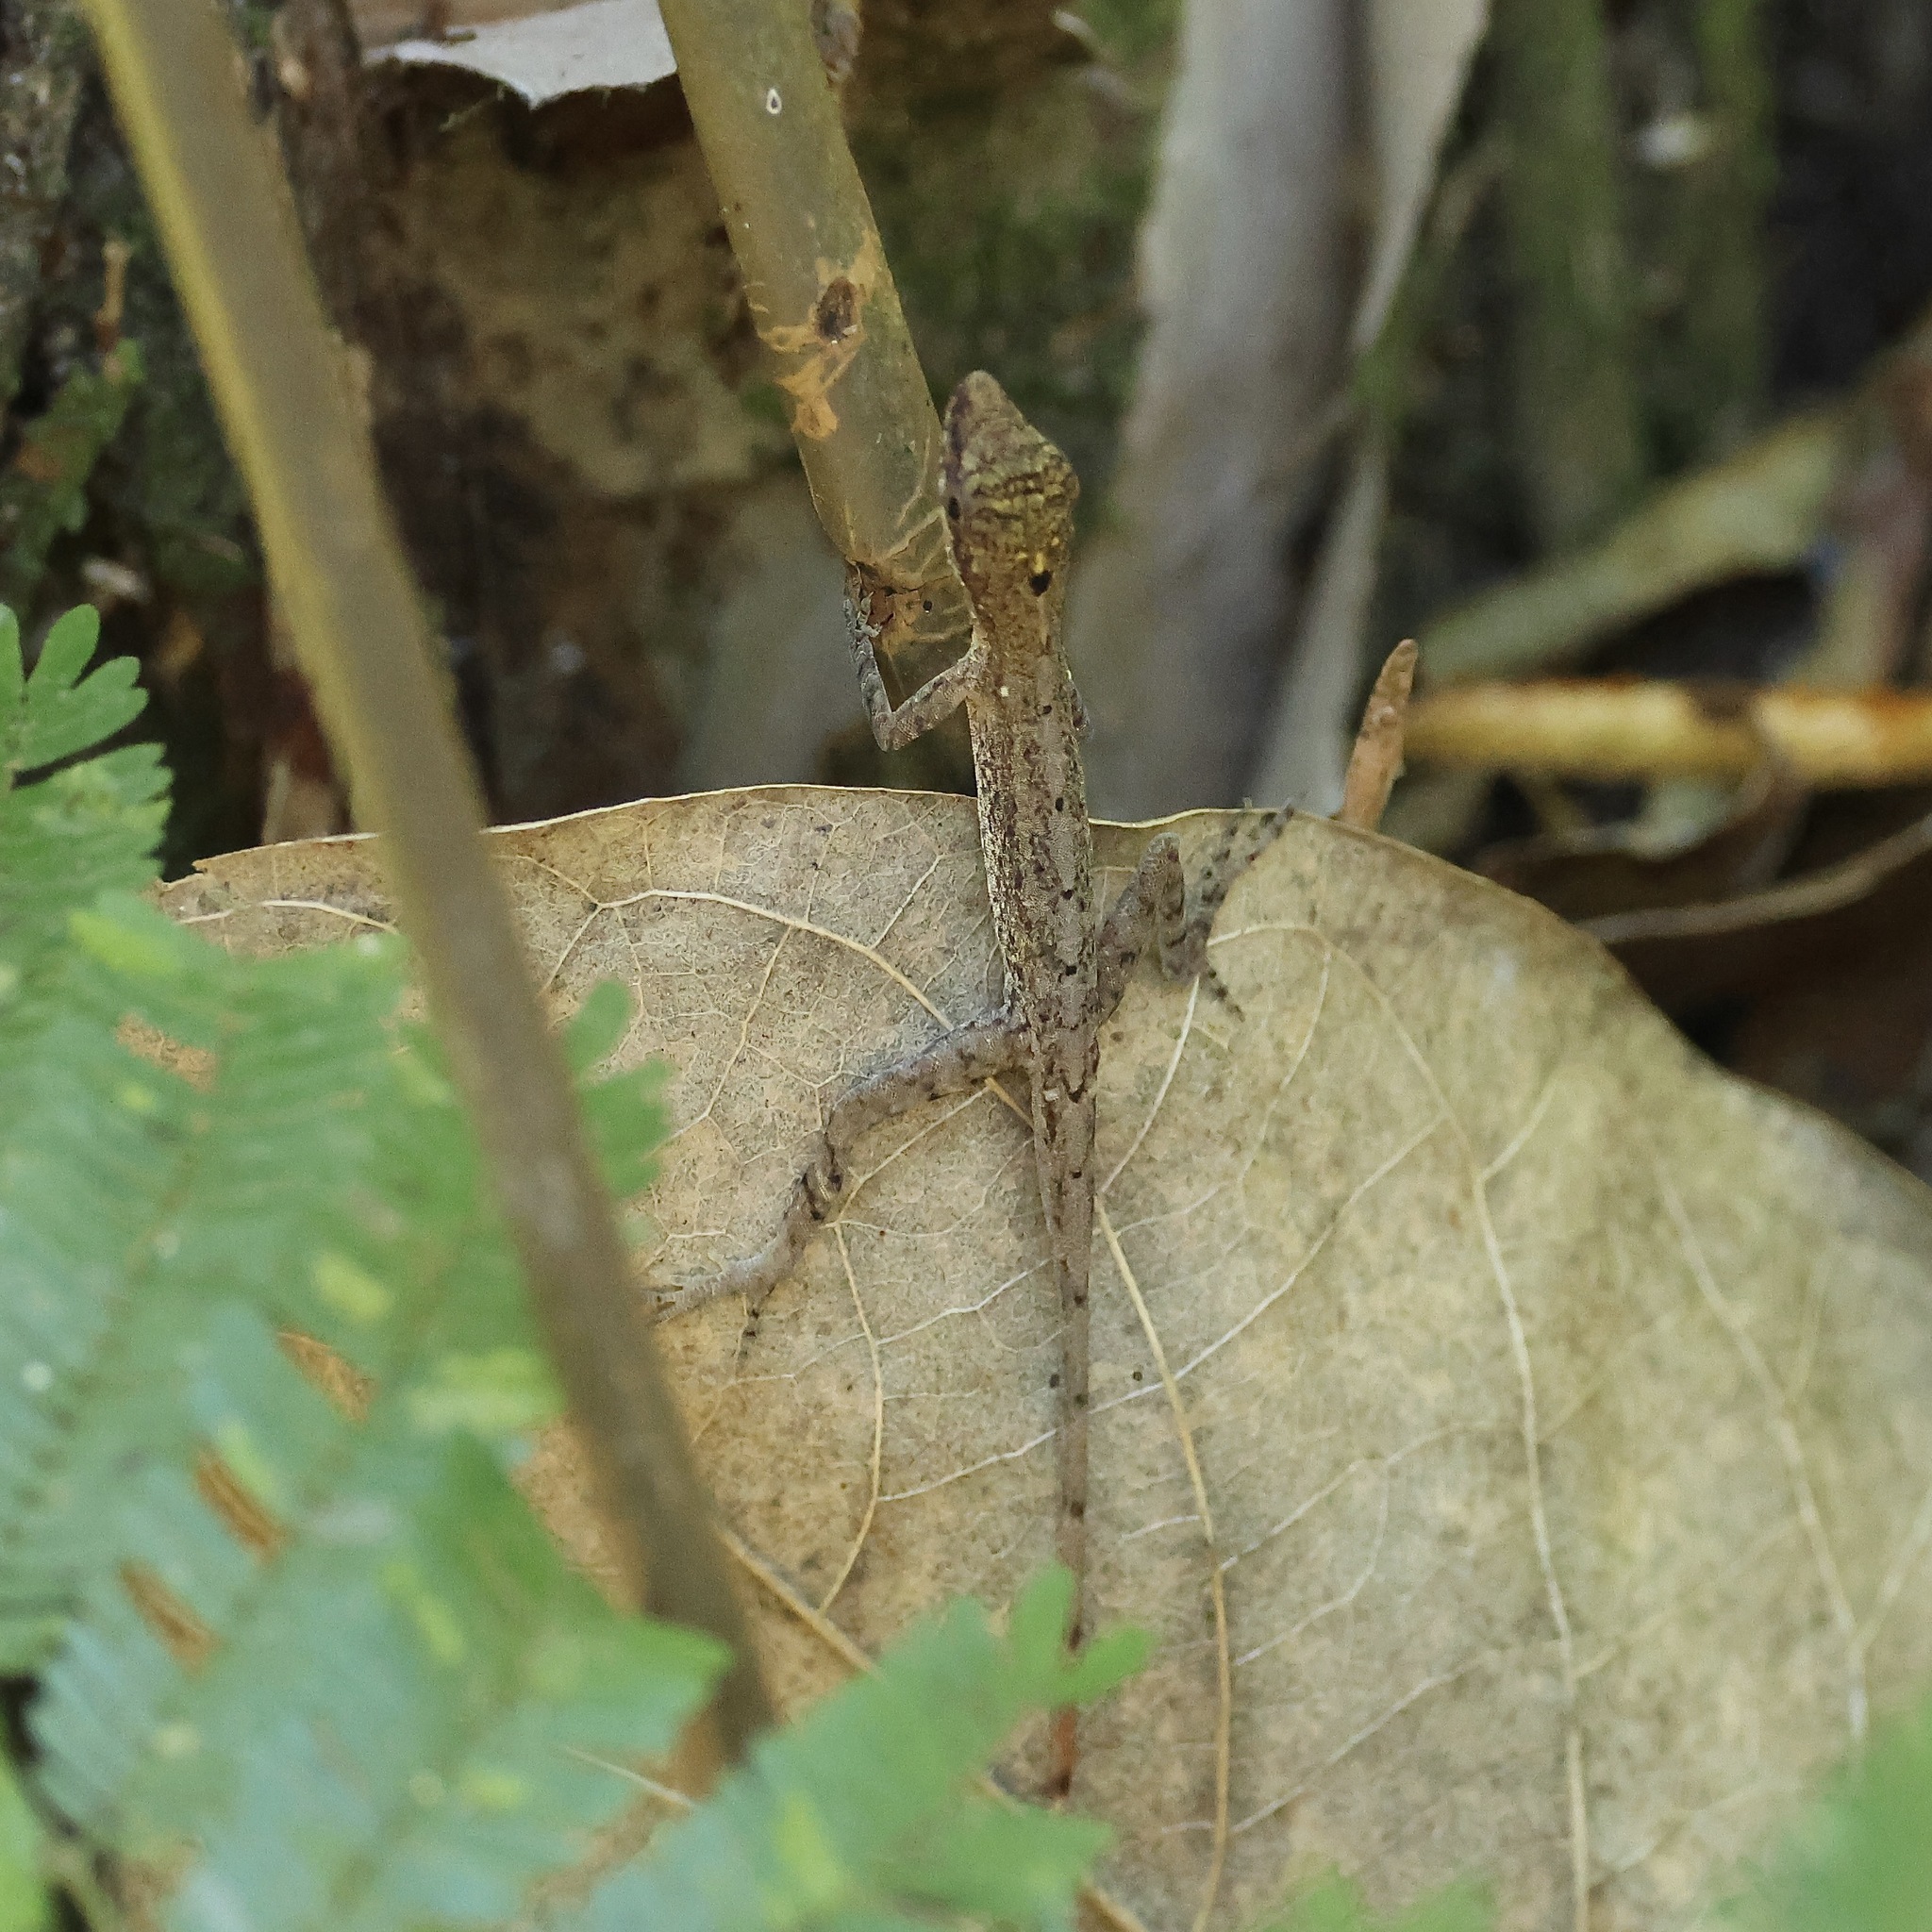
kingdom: Animalia
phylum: Chordata
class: Squamata
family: Dactyloidae
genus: Anolis
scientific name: Anolis limifrons
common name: Border anole
